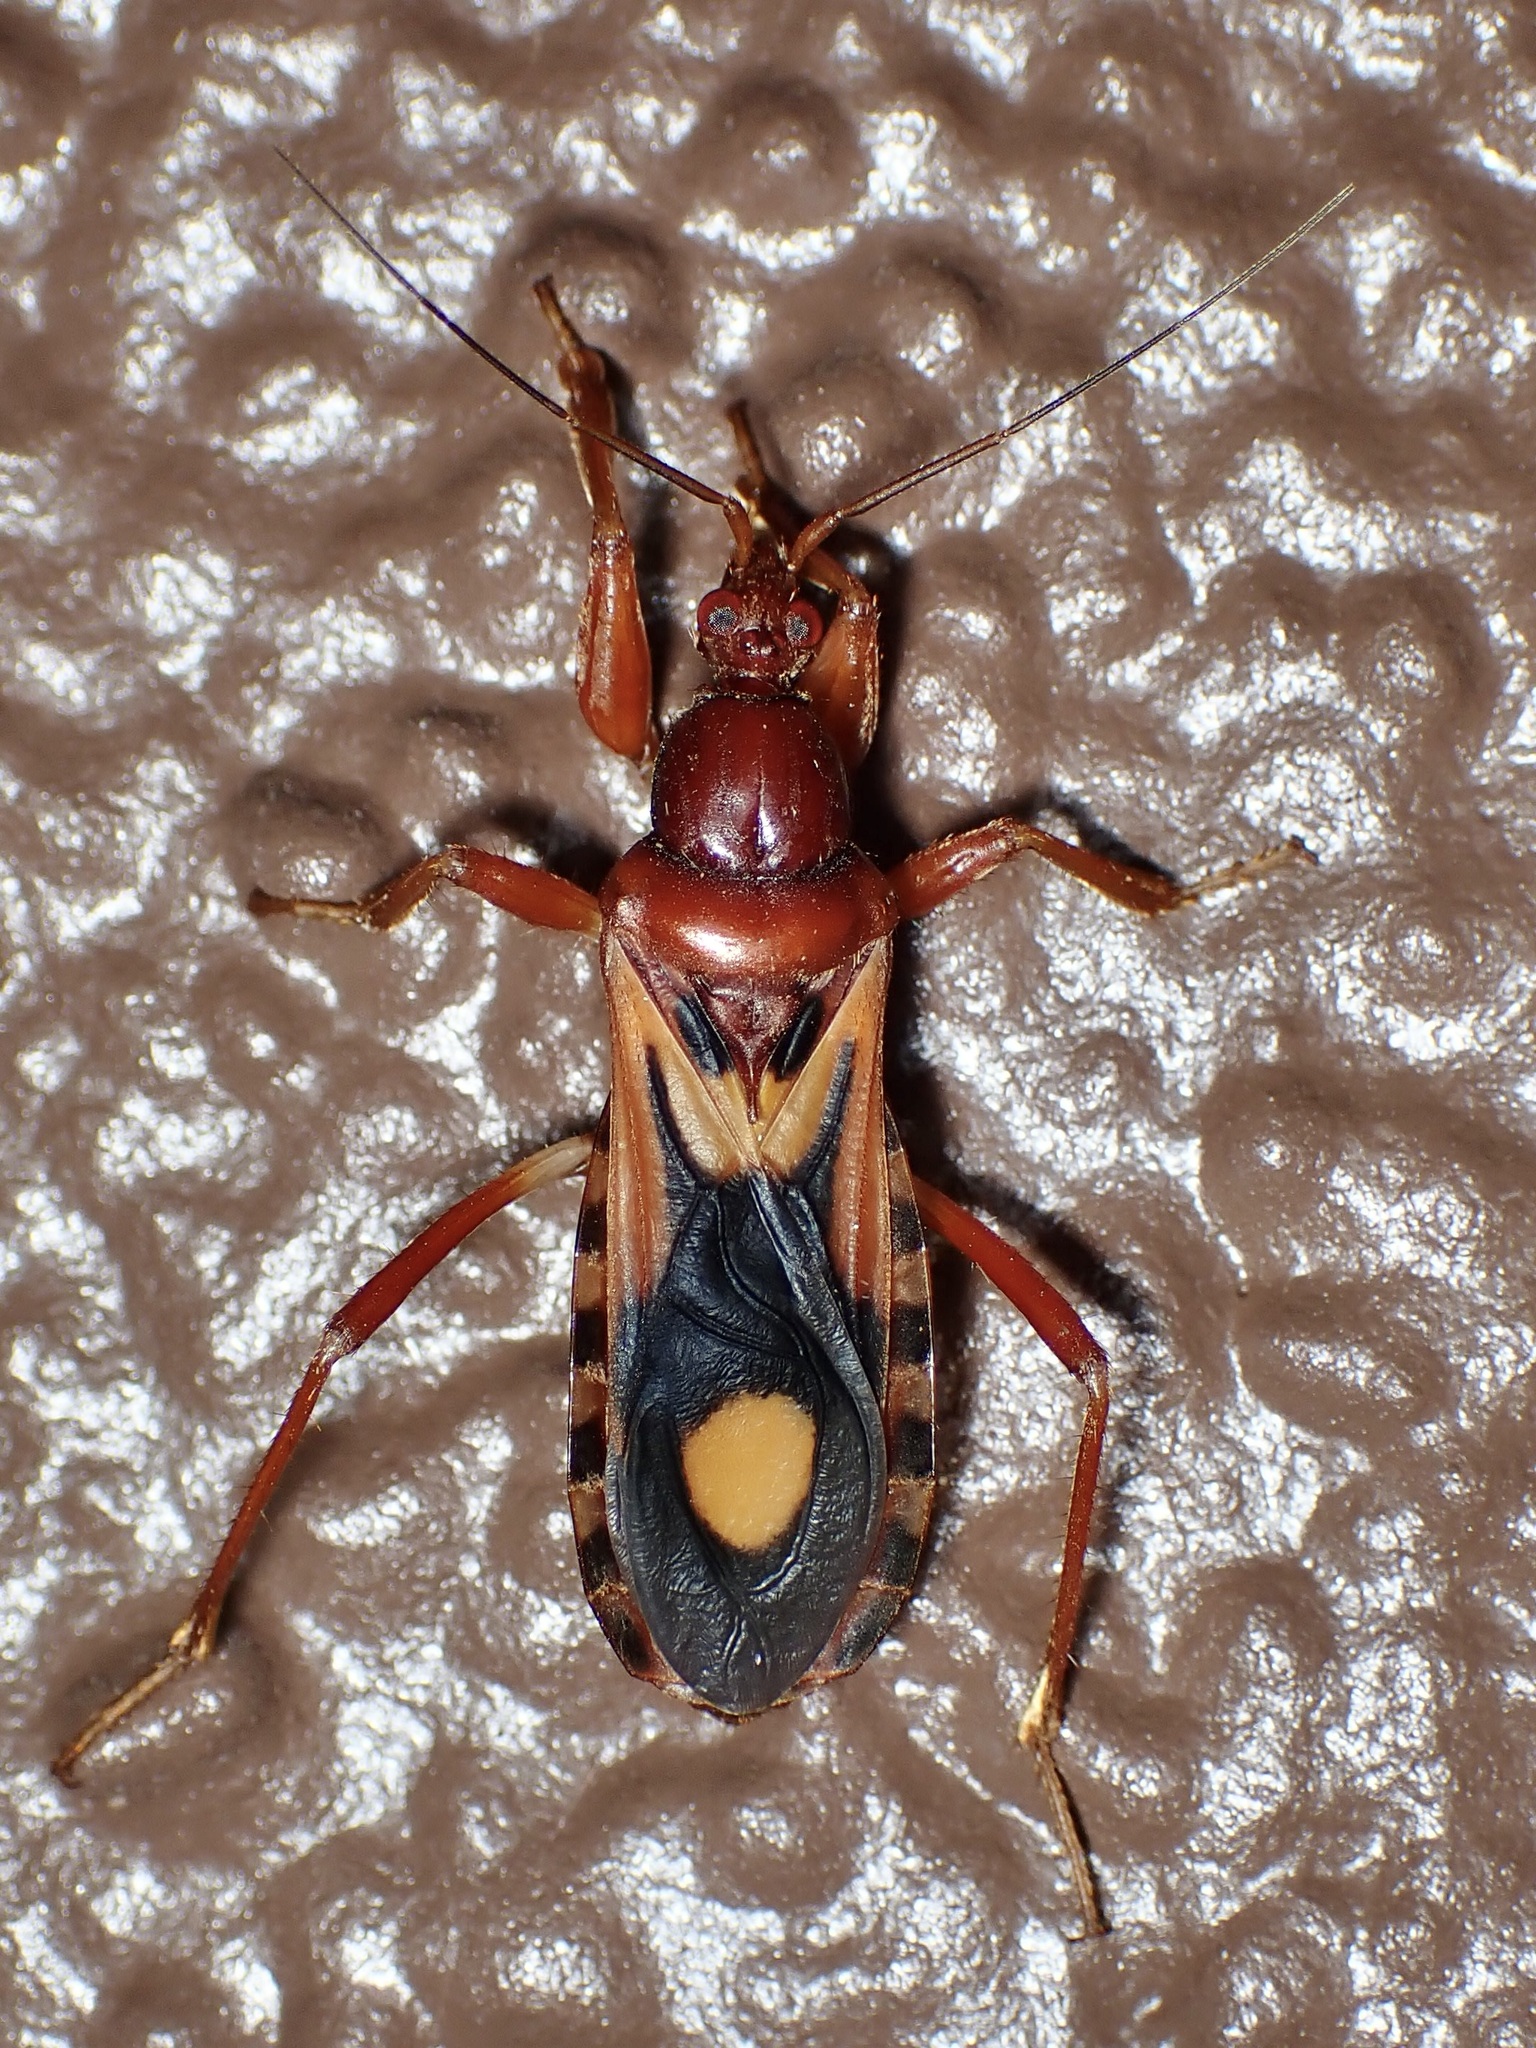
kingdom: Animalia
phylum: Arthropoda
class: Insecta
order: Hemiptera
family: Reduviidae
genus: Rasahus
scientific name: Rasahus thoracicus
